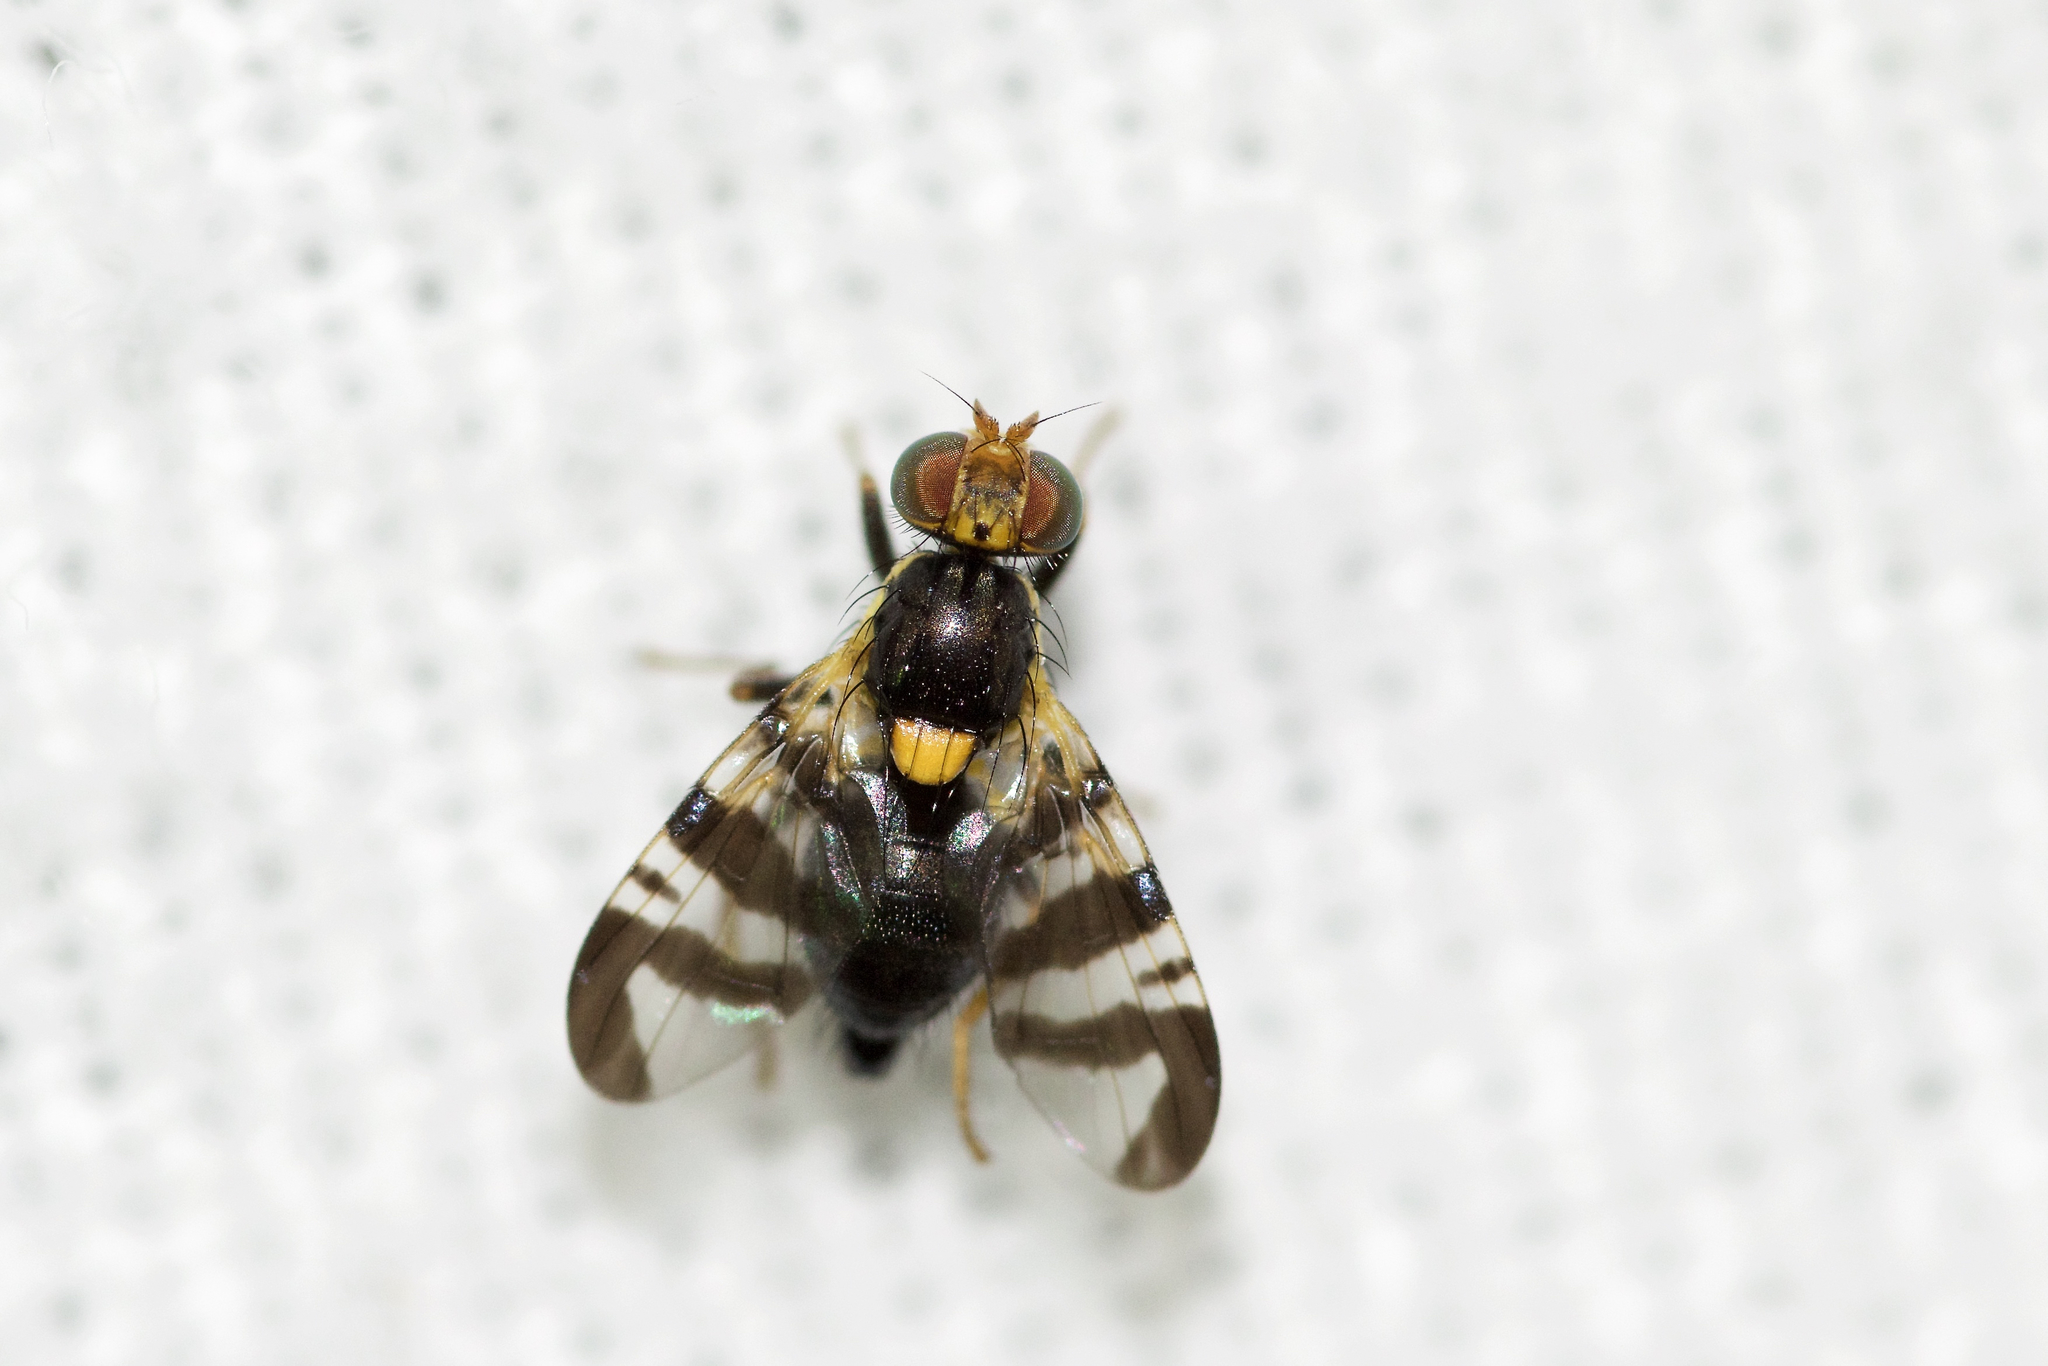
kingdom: Animalia
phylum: Arthropoda
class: Insecta
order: Diptera
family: Tephritidae
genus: Rhagoletis
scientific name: Rhagoletis cerasi
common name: European cherry fruit fly
